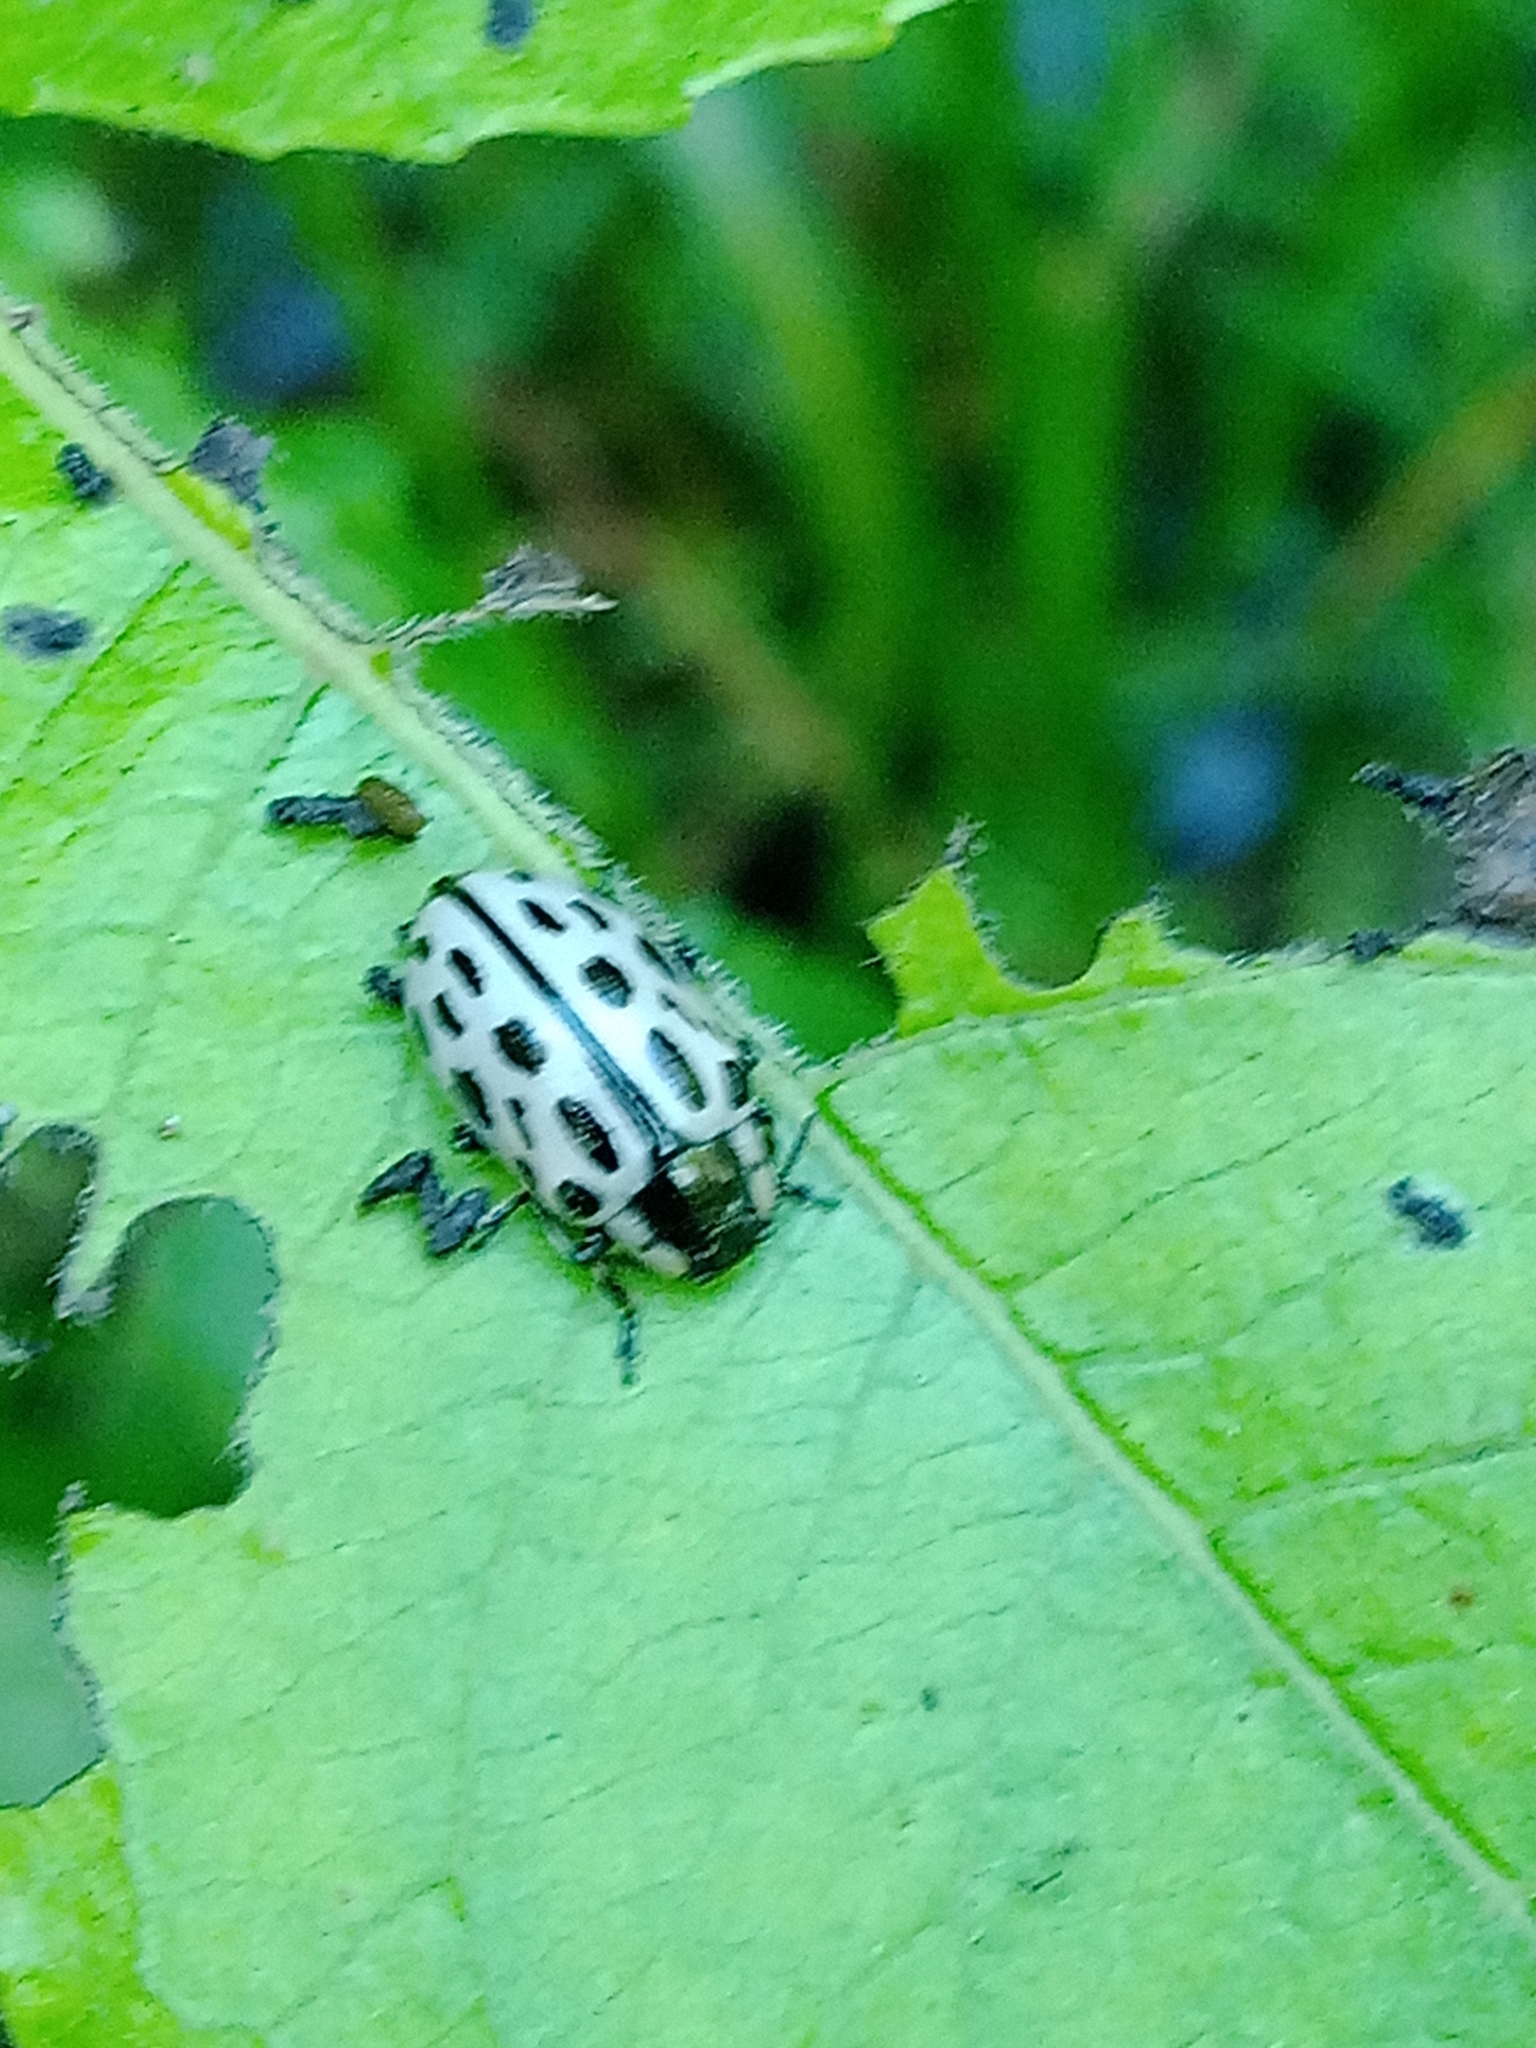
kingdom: Animalia
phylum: Arthropoda
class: Insecta
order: Coleoptera
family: Chrysomelidae
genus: Chrysomela
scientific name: Chrysomela vigintipunctata
